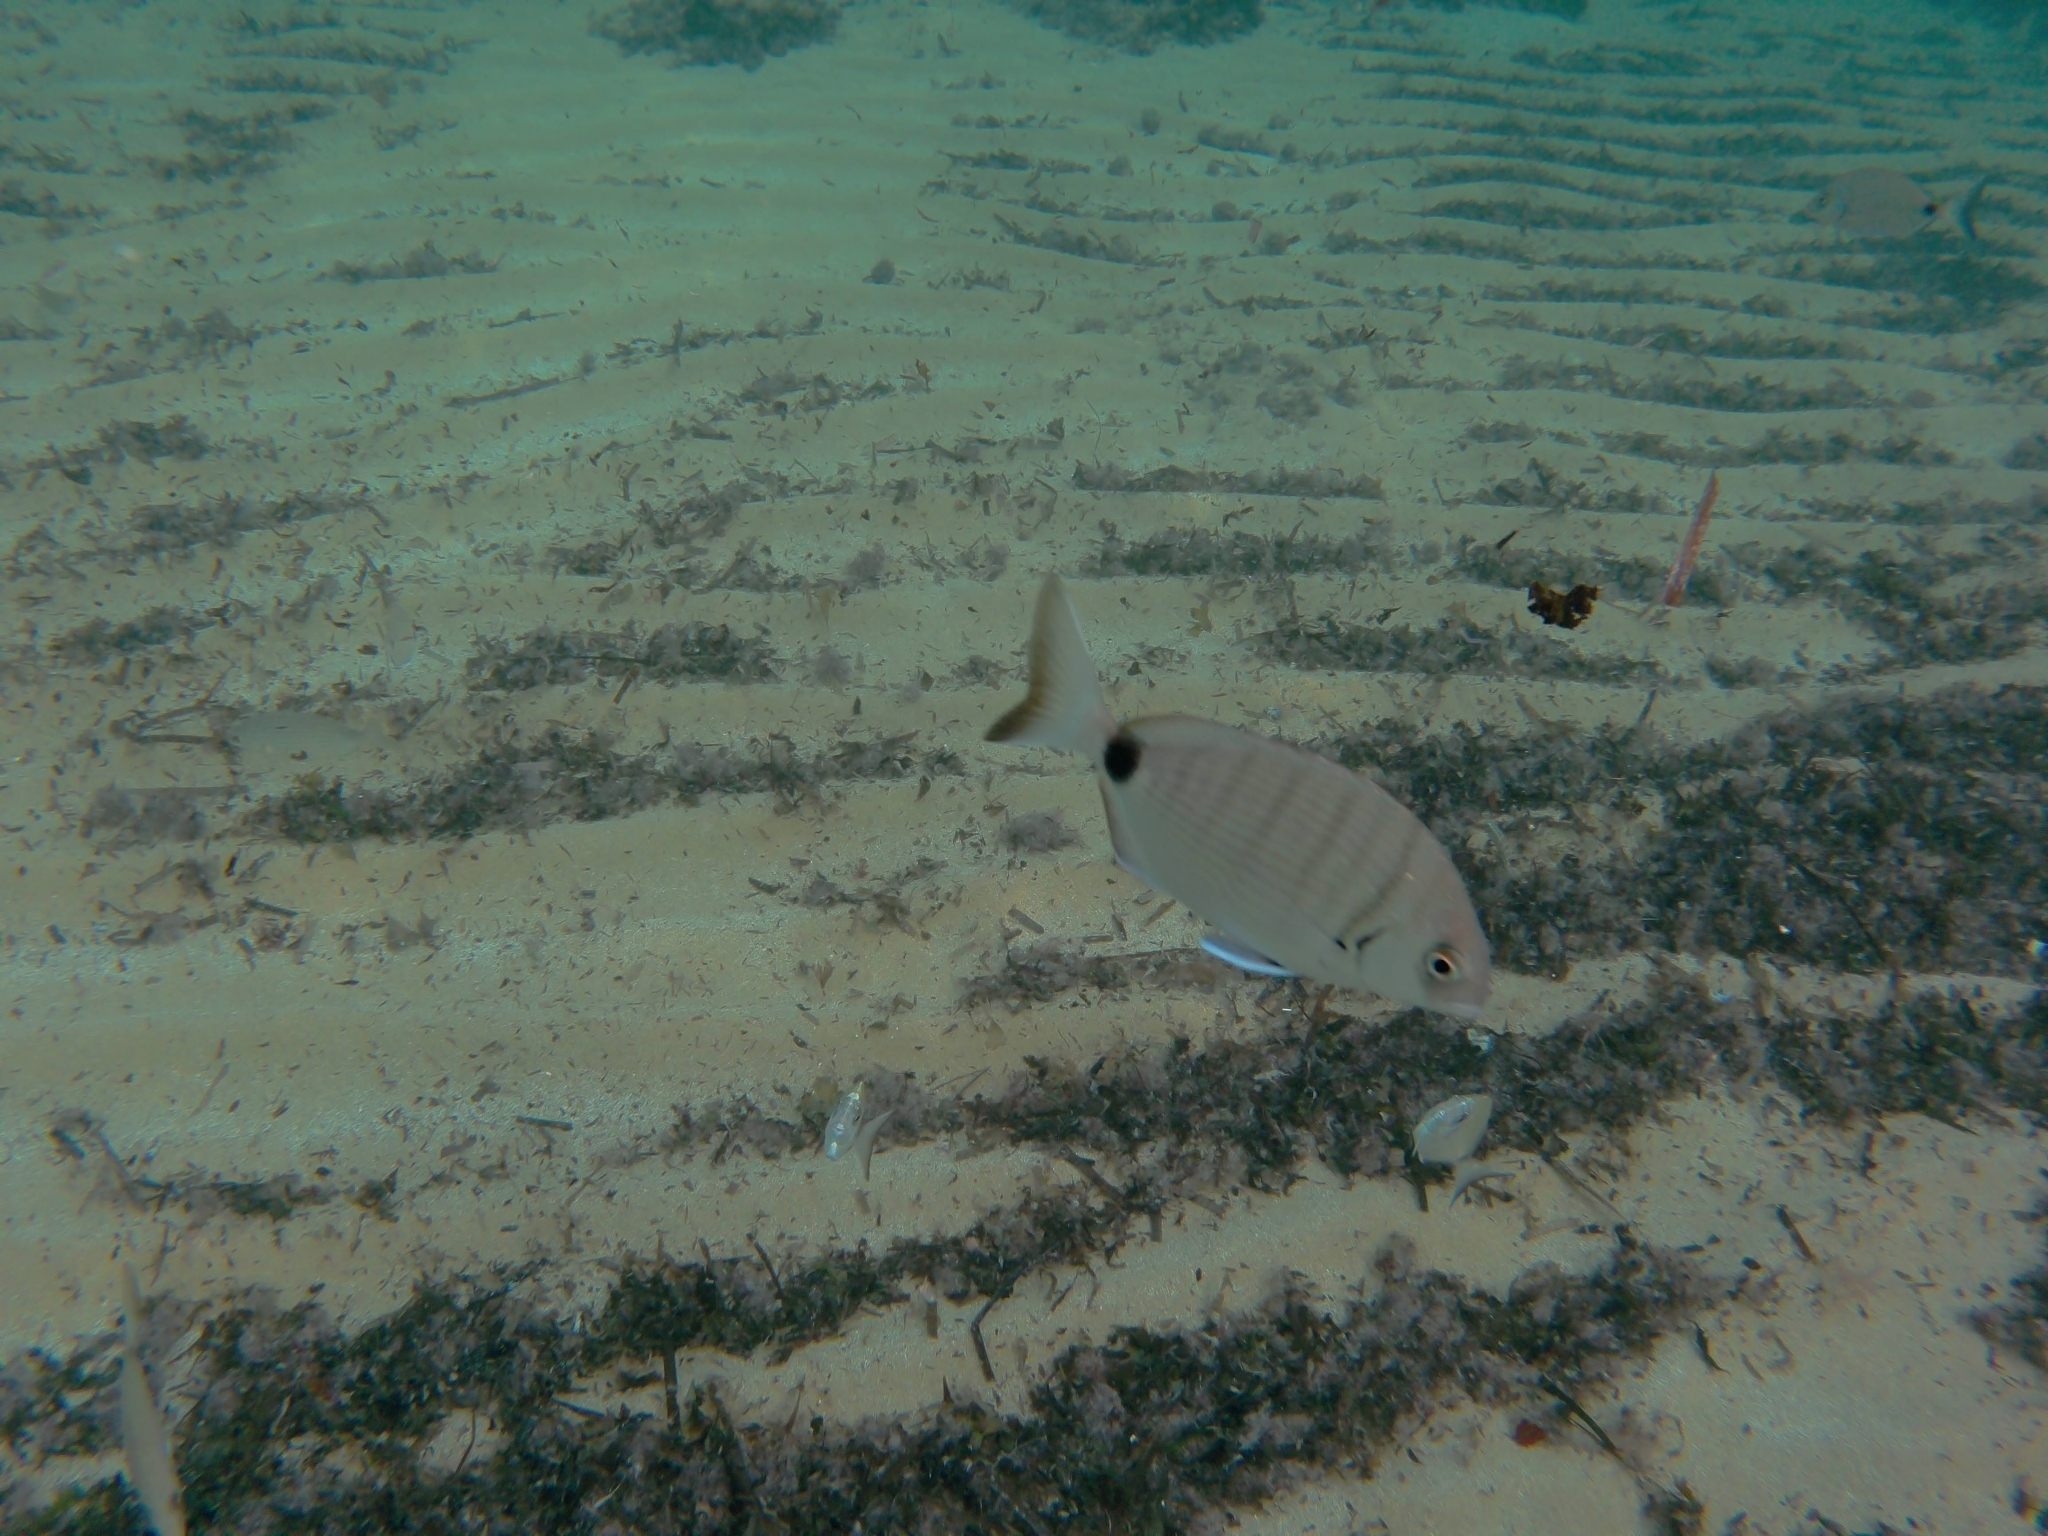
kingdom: Animalia
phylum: Chordata
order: Perciformes
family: Sparidae
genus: Diplodus
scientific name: Diplodus sargus
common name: White seabream
